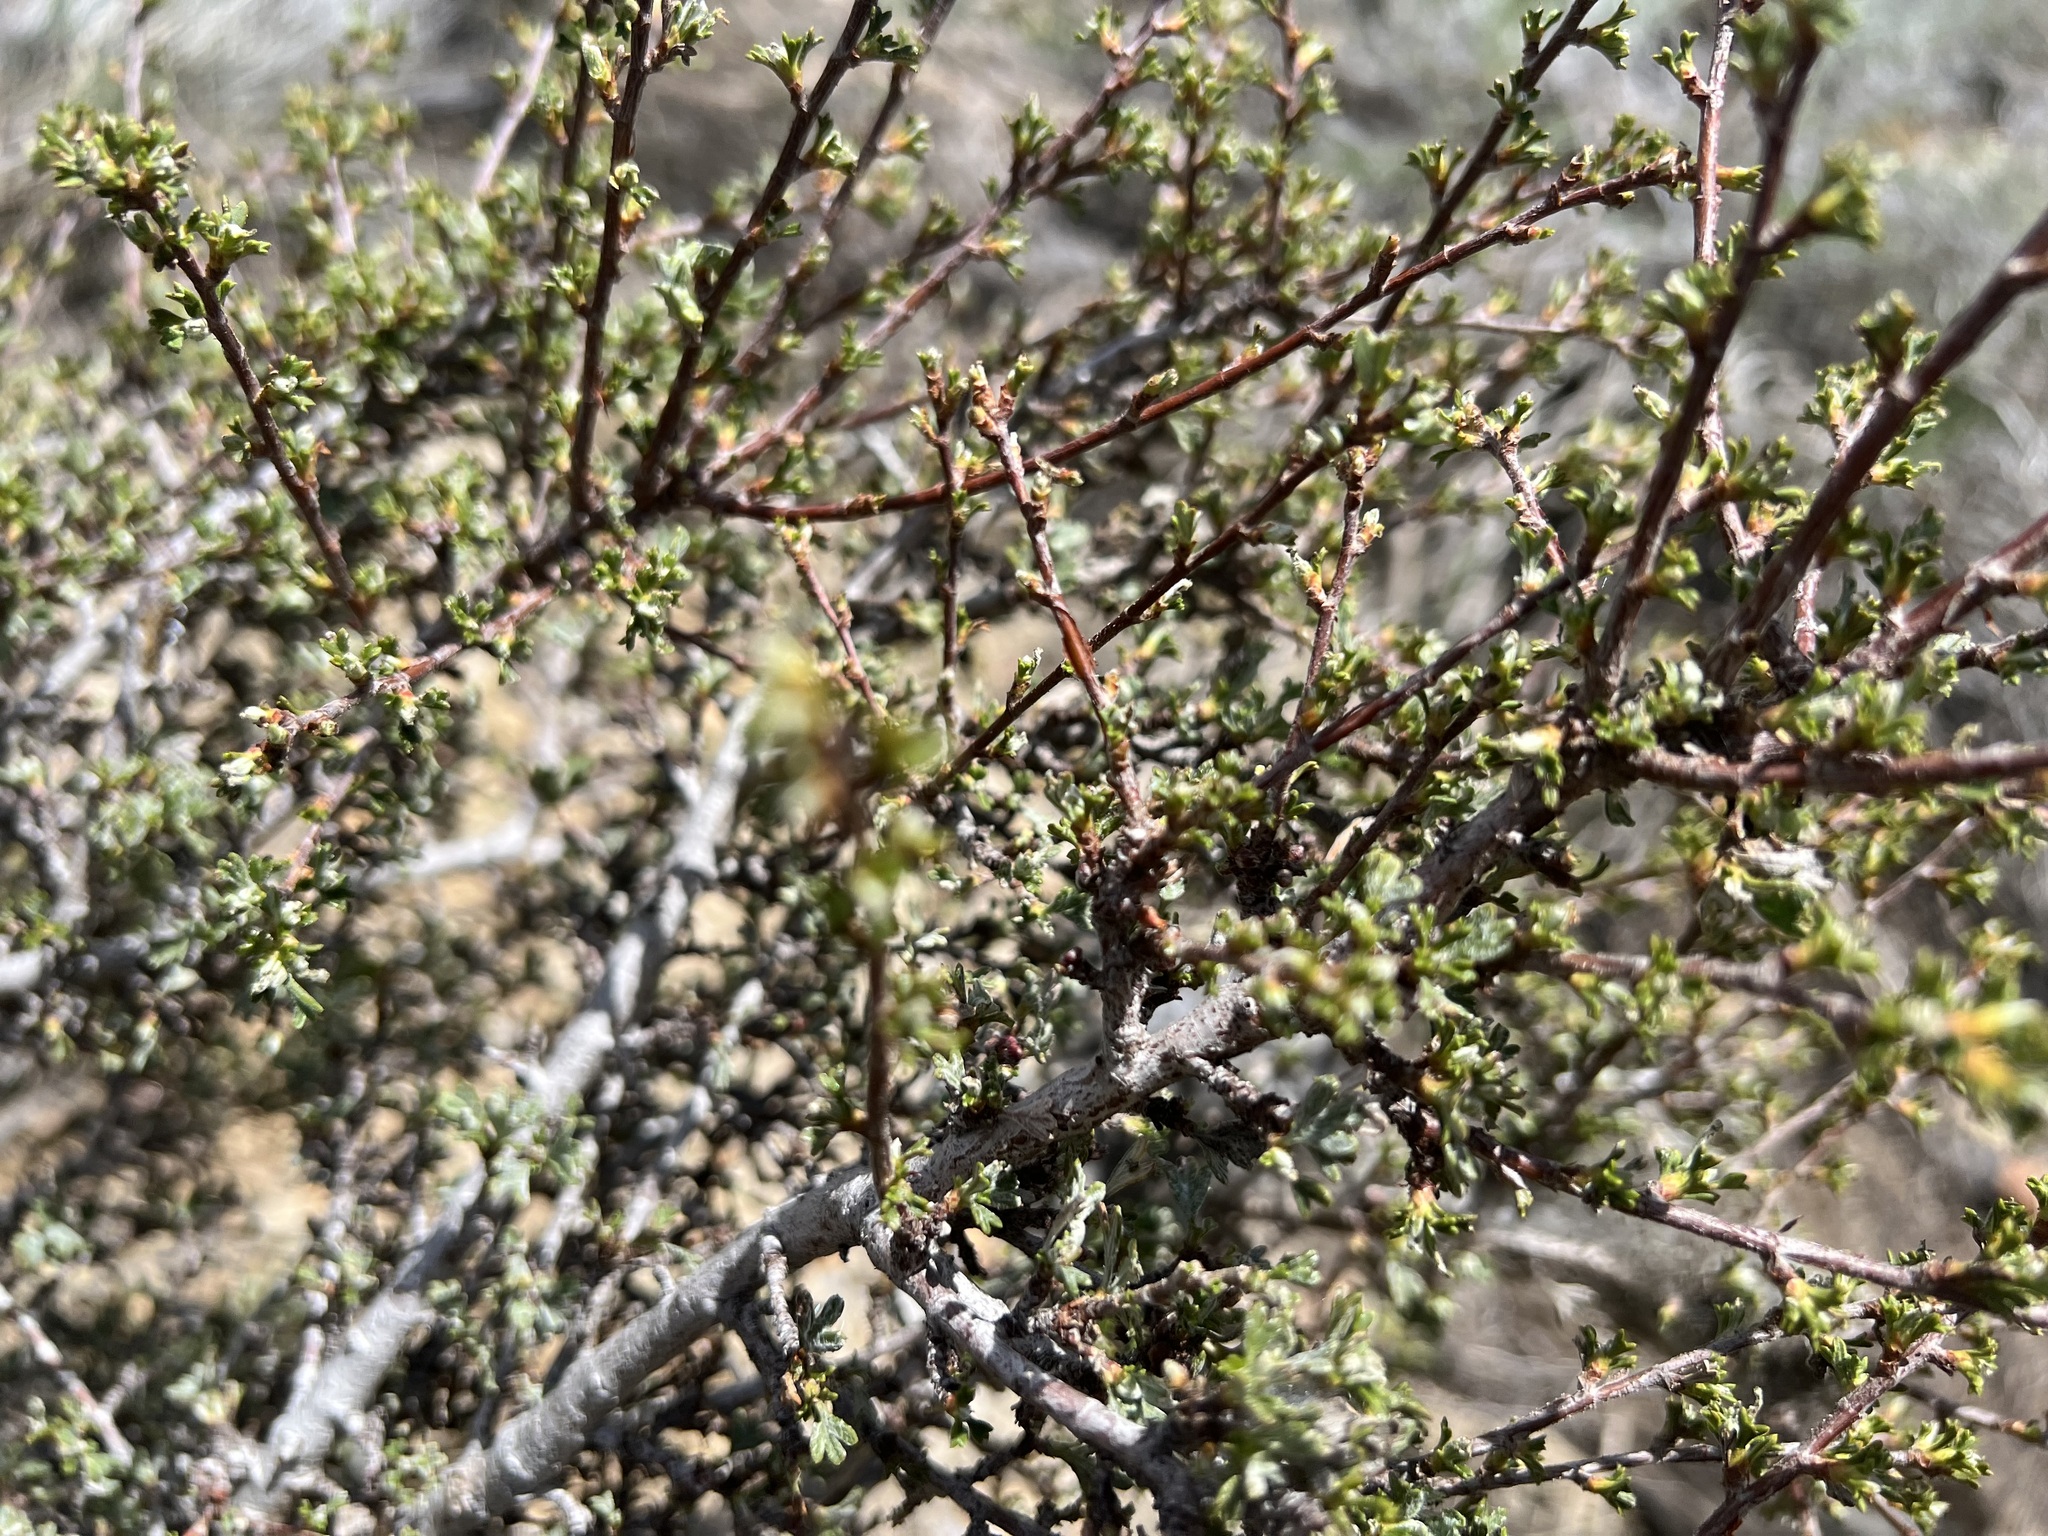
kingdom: Plantae
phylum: Tracheophyta
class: Magnoliopsida
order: Rosales
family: Rosaceae
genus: Purshia
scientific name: Purshia tridentata
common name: Antelope bitterbrush
